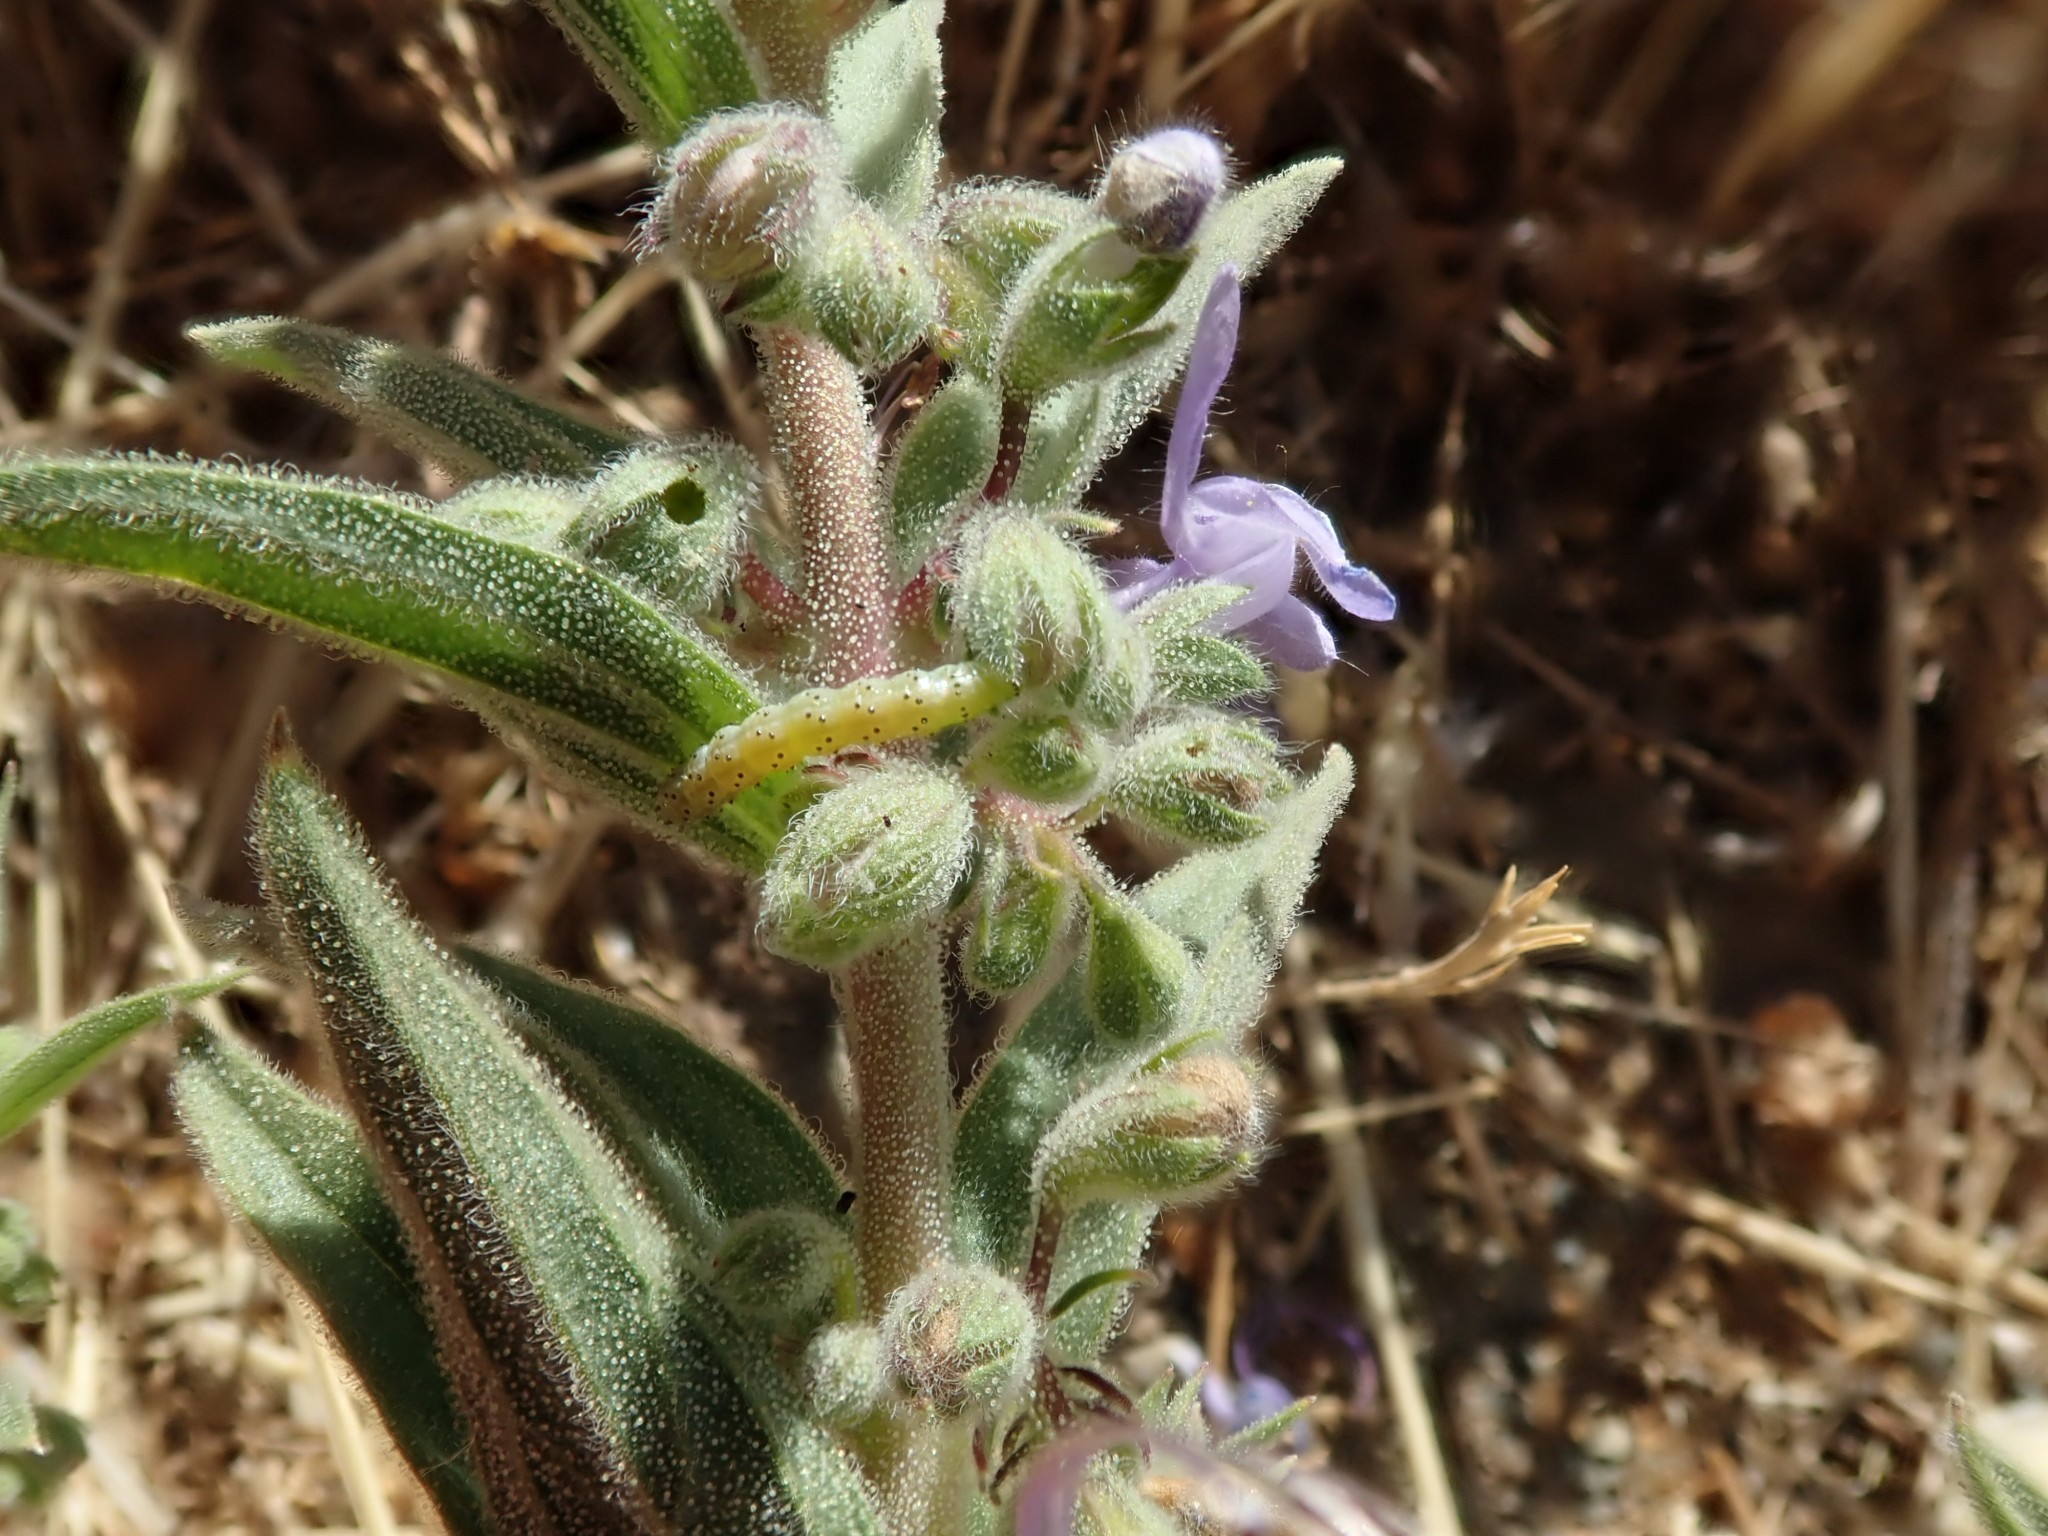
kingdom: Plantae
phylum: Tracheophyta
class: Magnoliopsida
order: Lamiales
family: Lamiaceae
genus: Trichostema
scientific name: Trichostema lanceolatum
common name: Vinegar-weed
